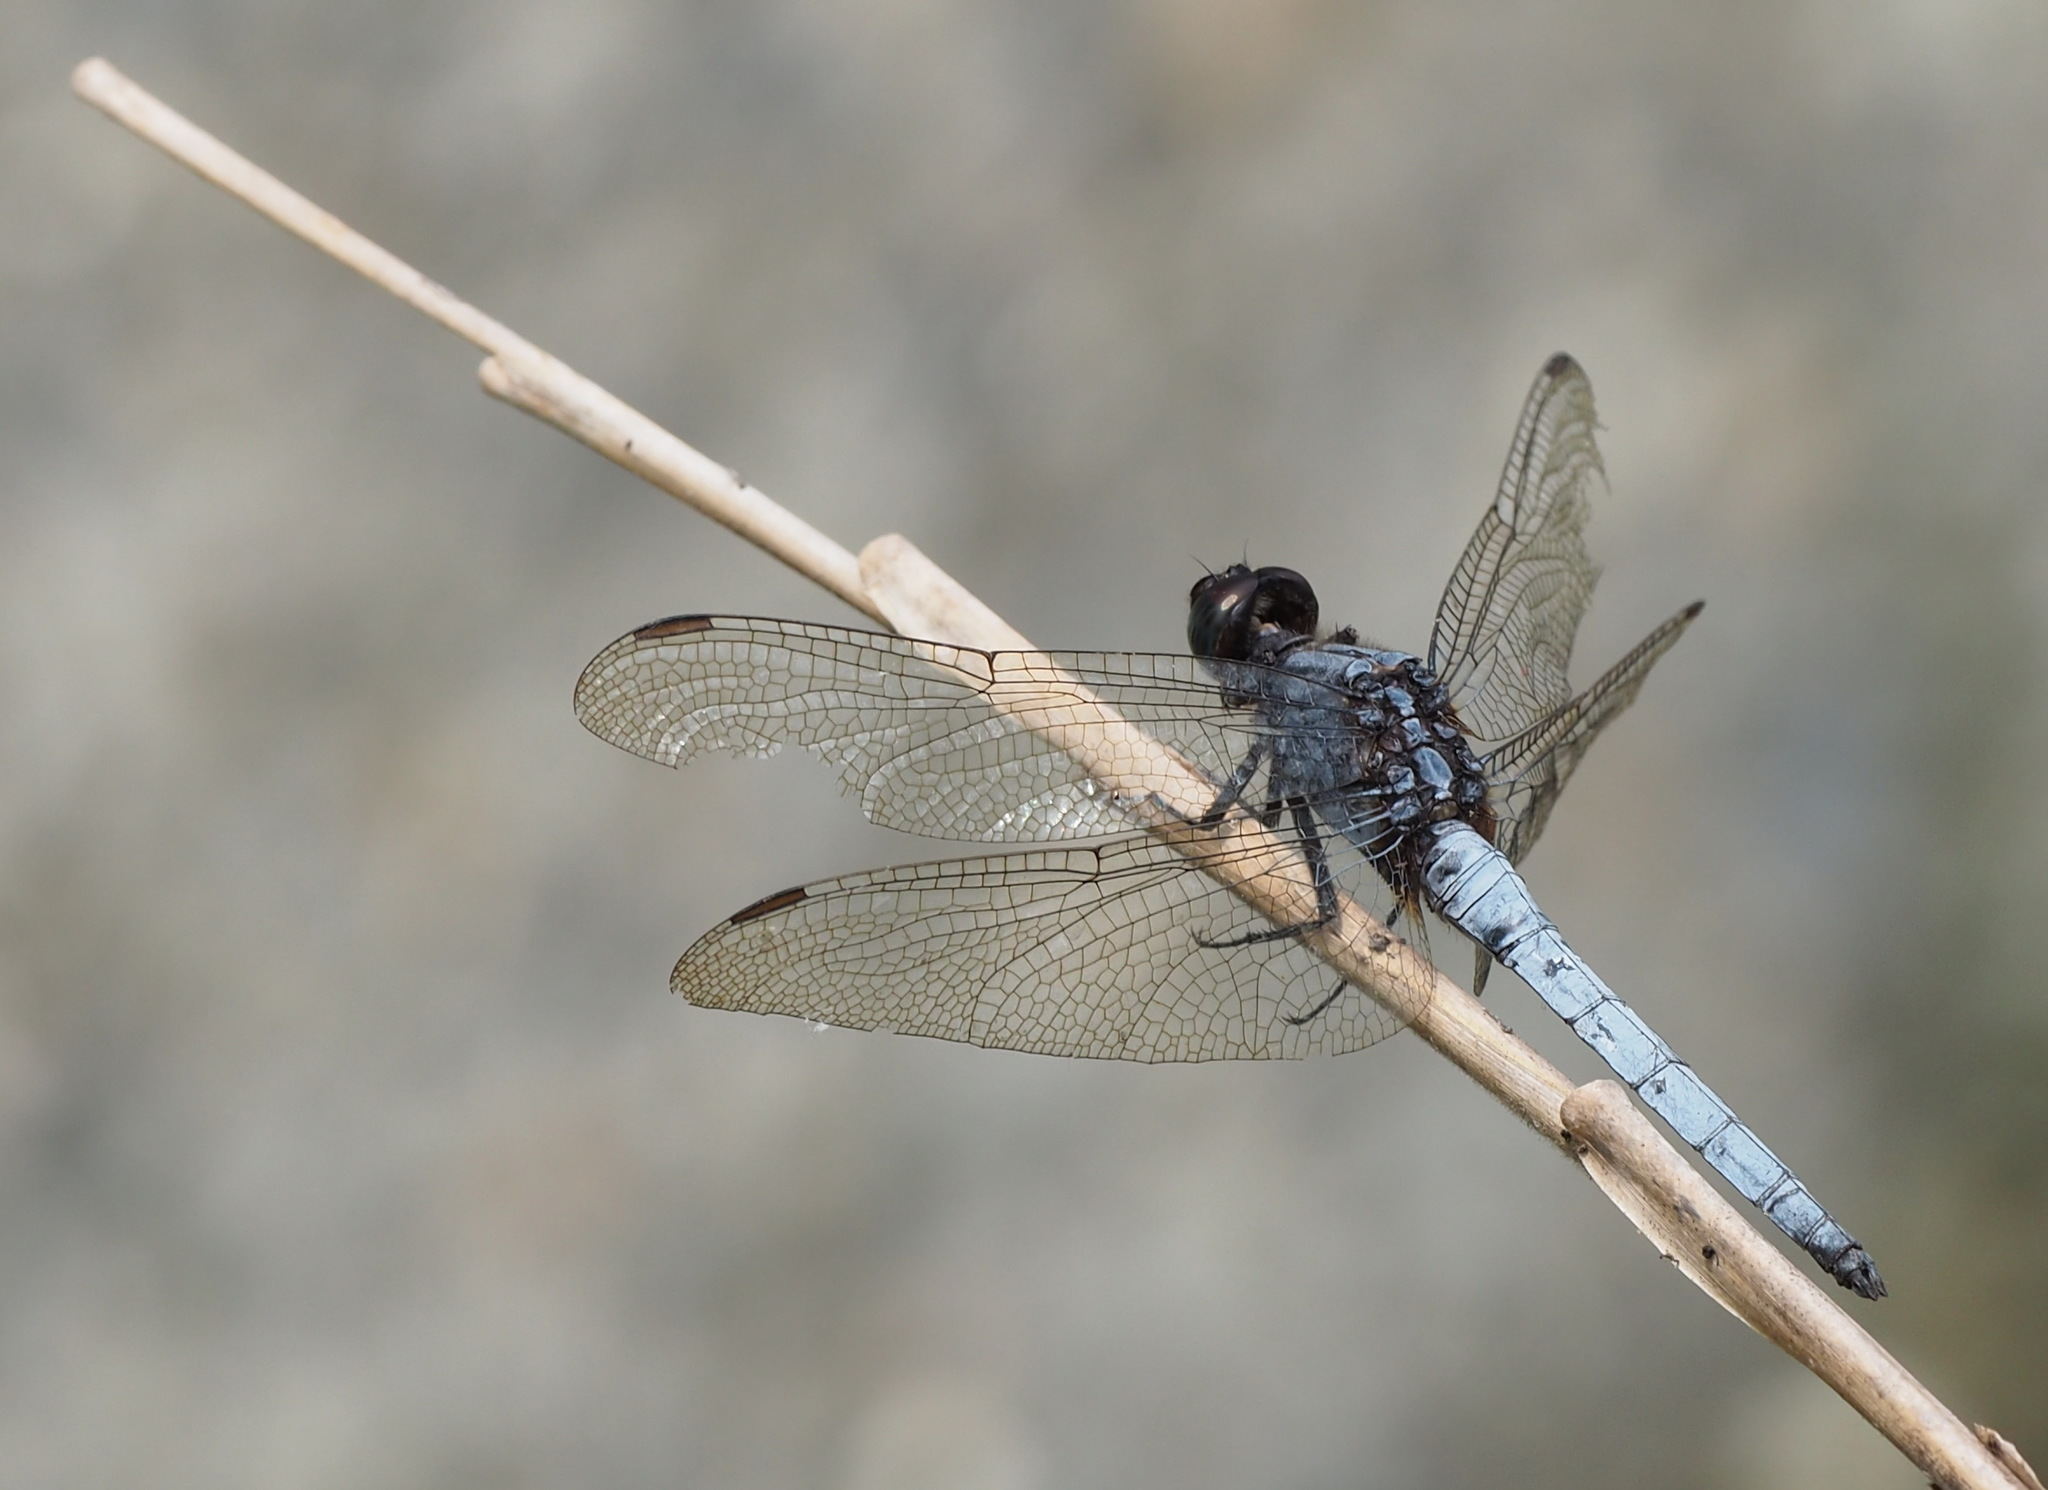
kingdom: Animalia
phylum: Arthropoda
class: Insecta
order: Odonata
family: Libellulidae
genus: Orthetrum
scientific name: Orthetrum glaucum
